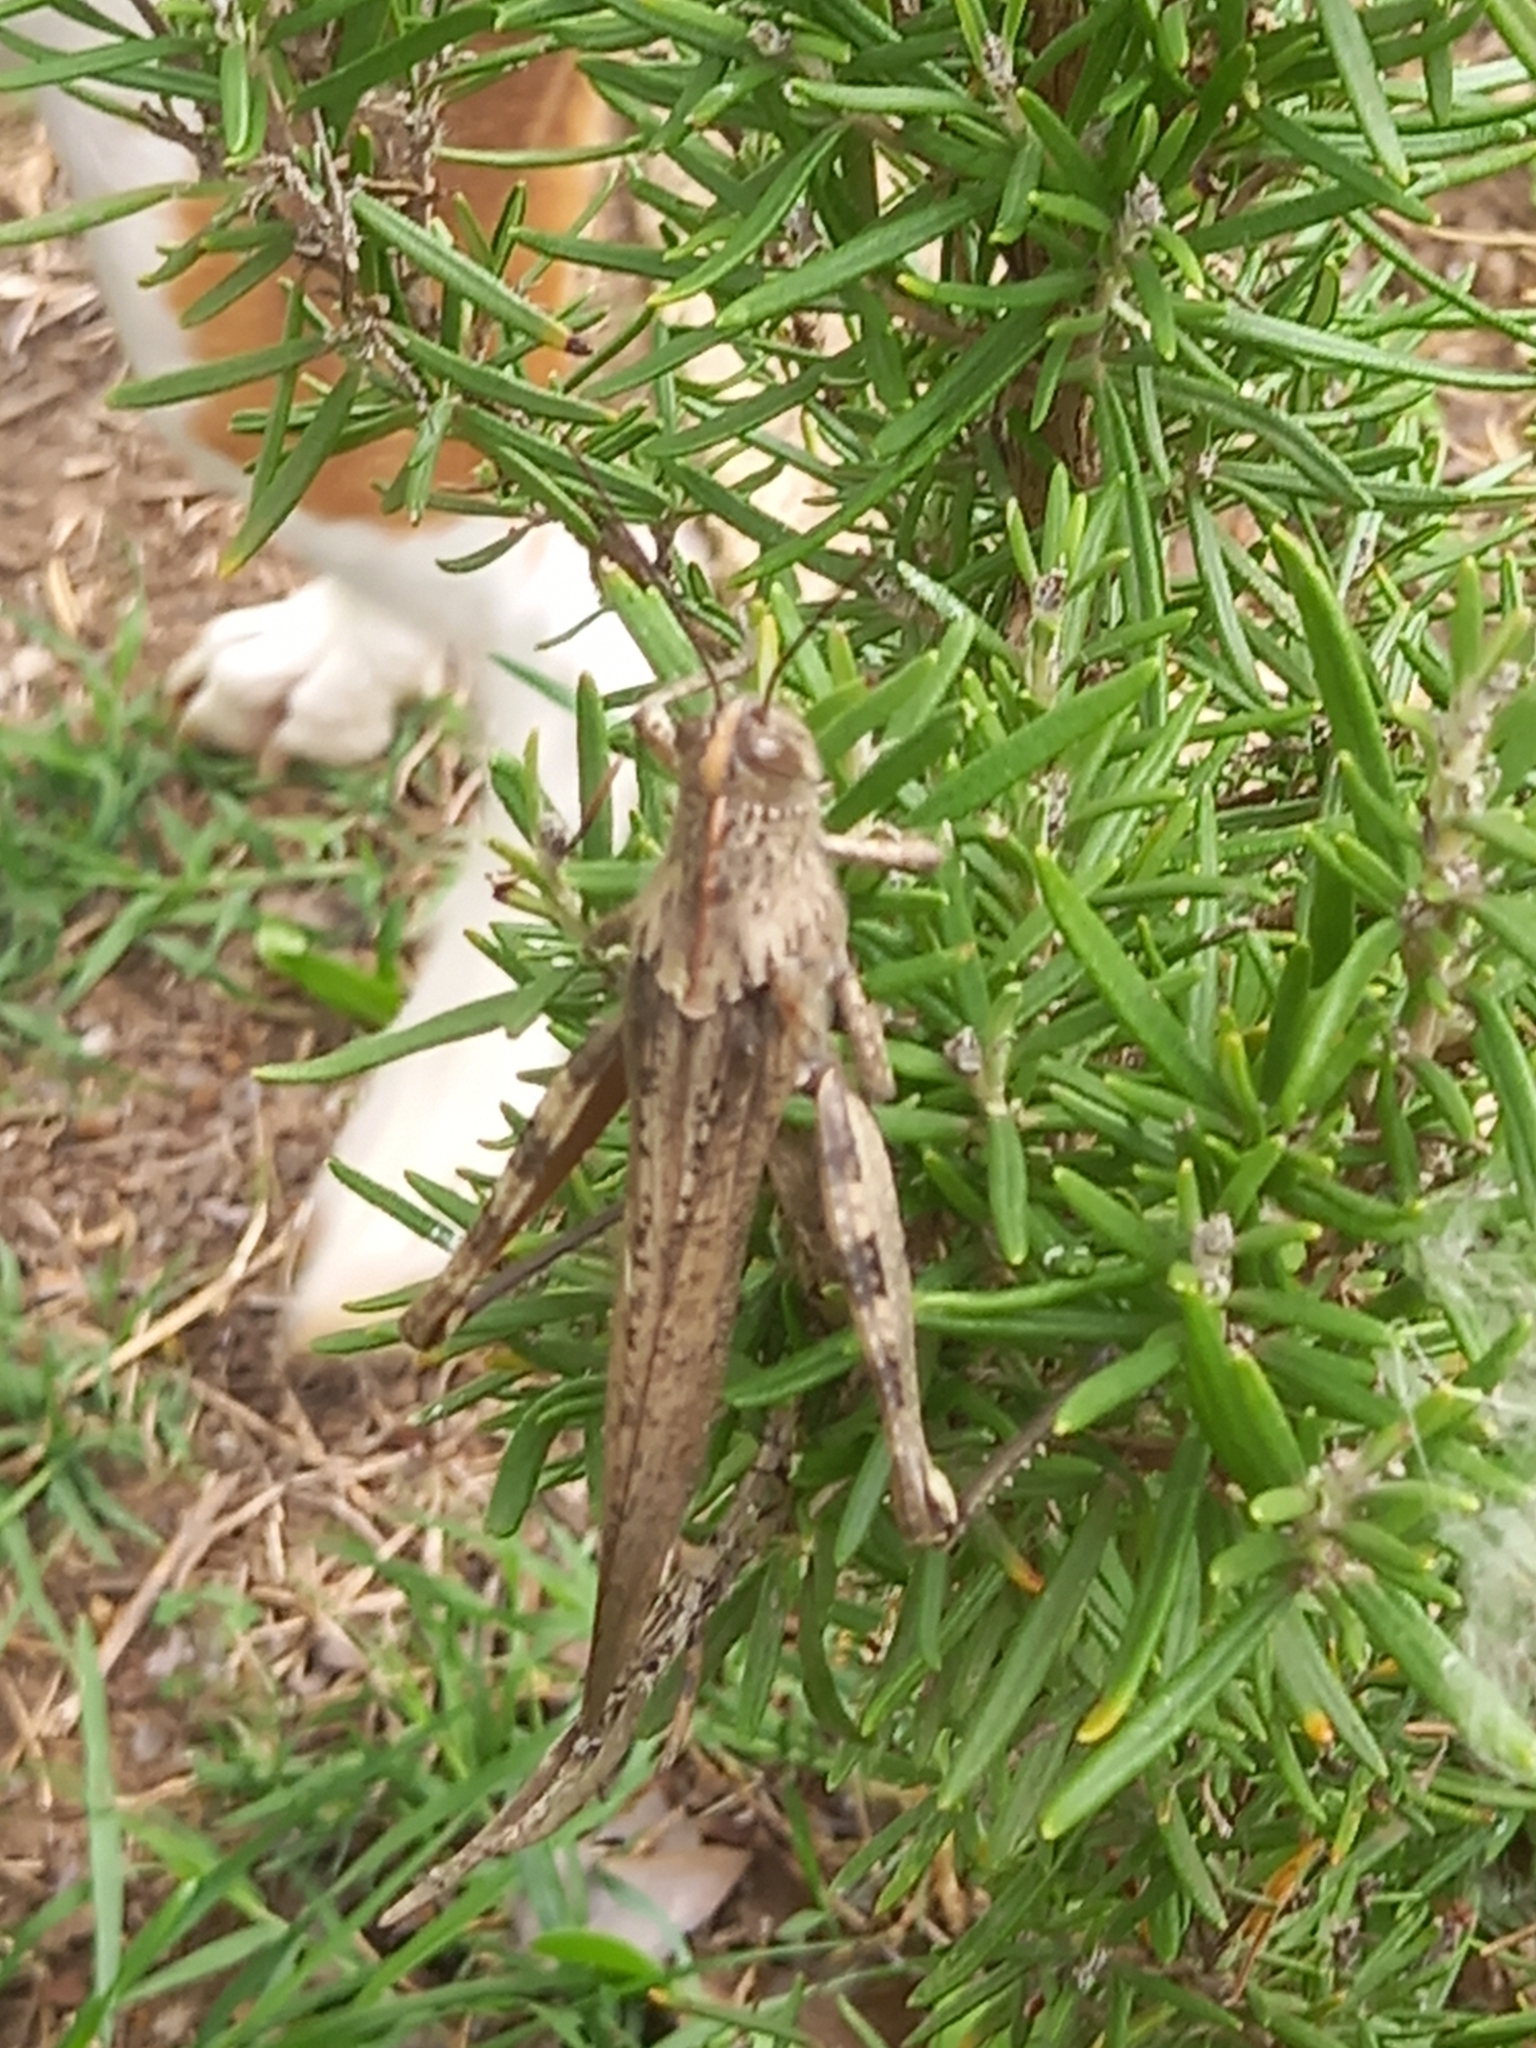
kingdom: Animalia
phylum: Arthropoda
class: Insecta
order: Orthoptera
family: Acrididae
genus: Anacridium
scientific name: Anacridium aegyptium
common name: Egyptian grasshopper
